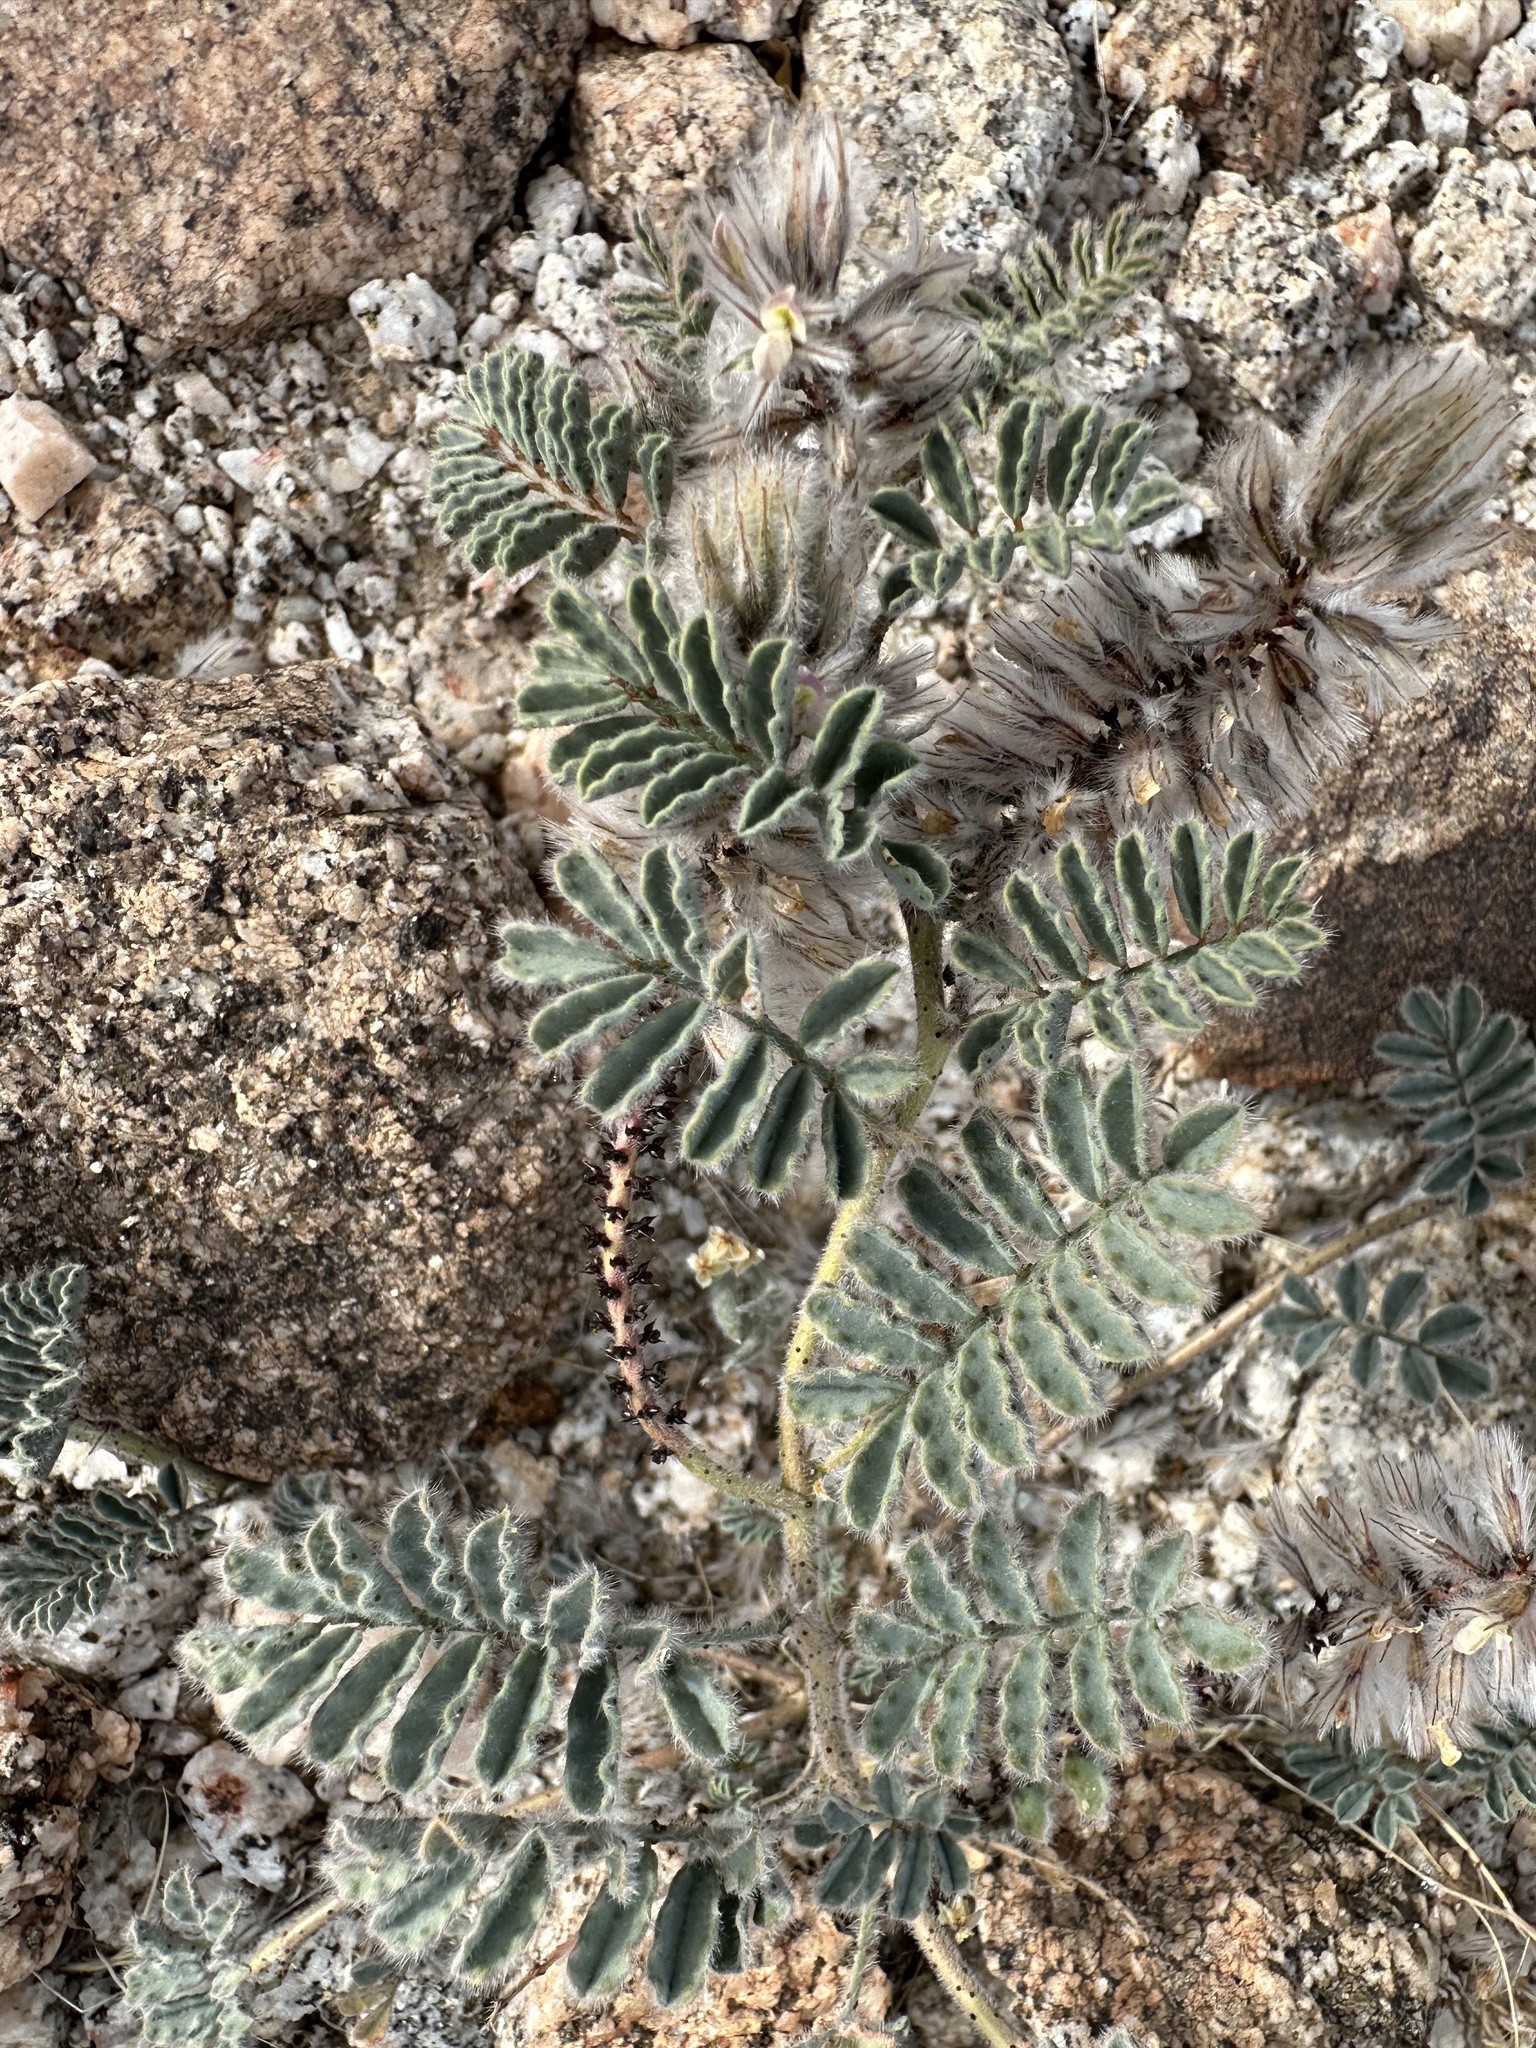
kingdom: Plantae
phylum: Tracheophyta
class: Magnoliopsida
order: Fabales
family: Fabaceae
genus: Dalea
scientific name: Dalea mollissima
